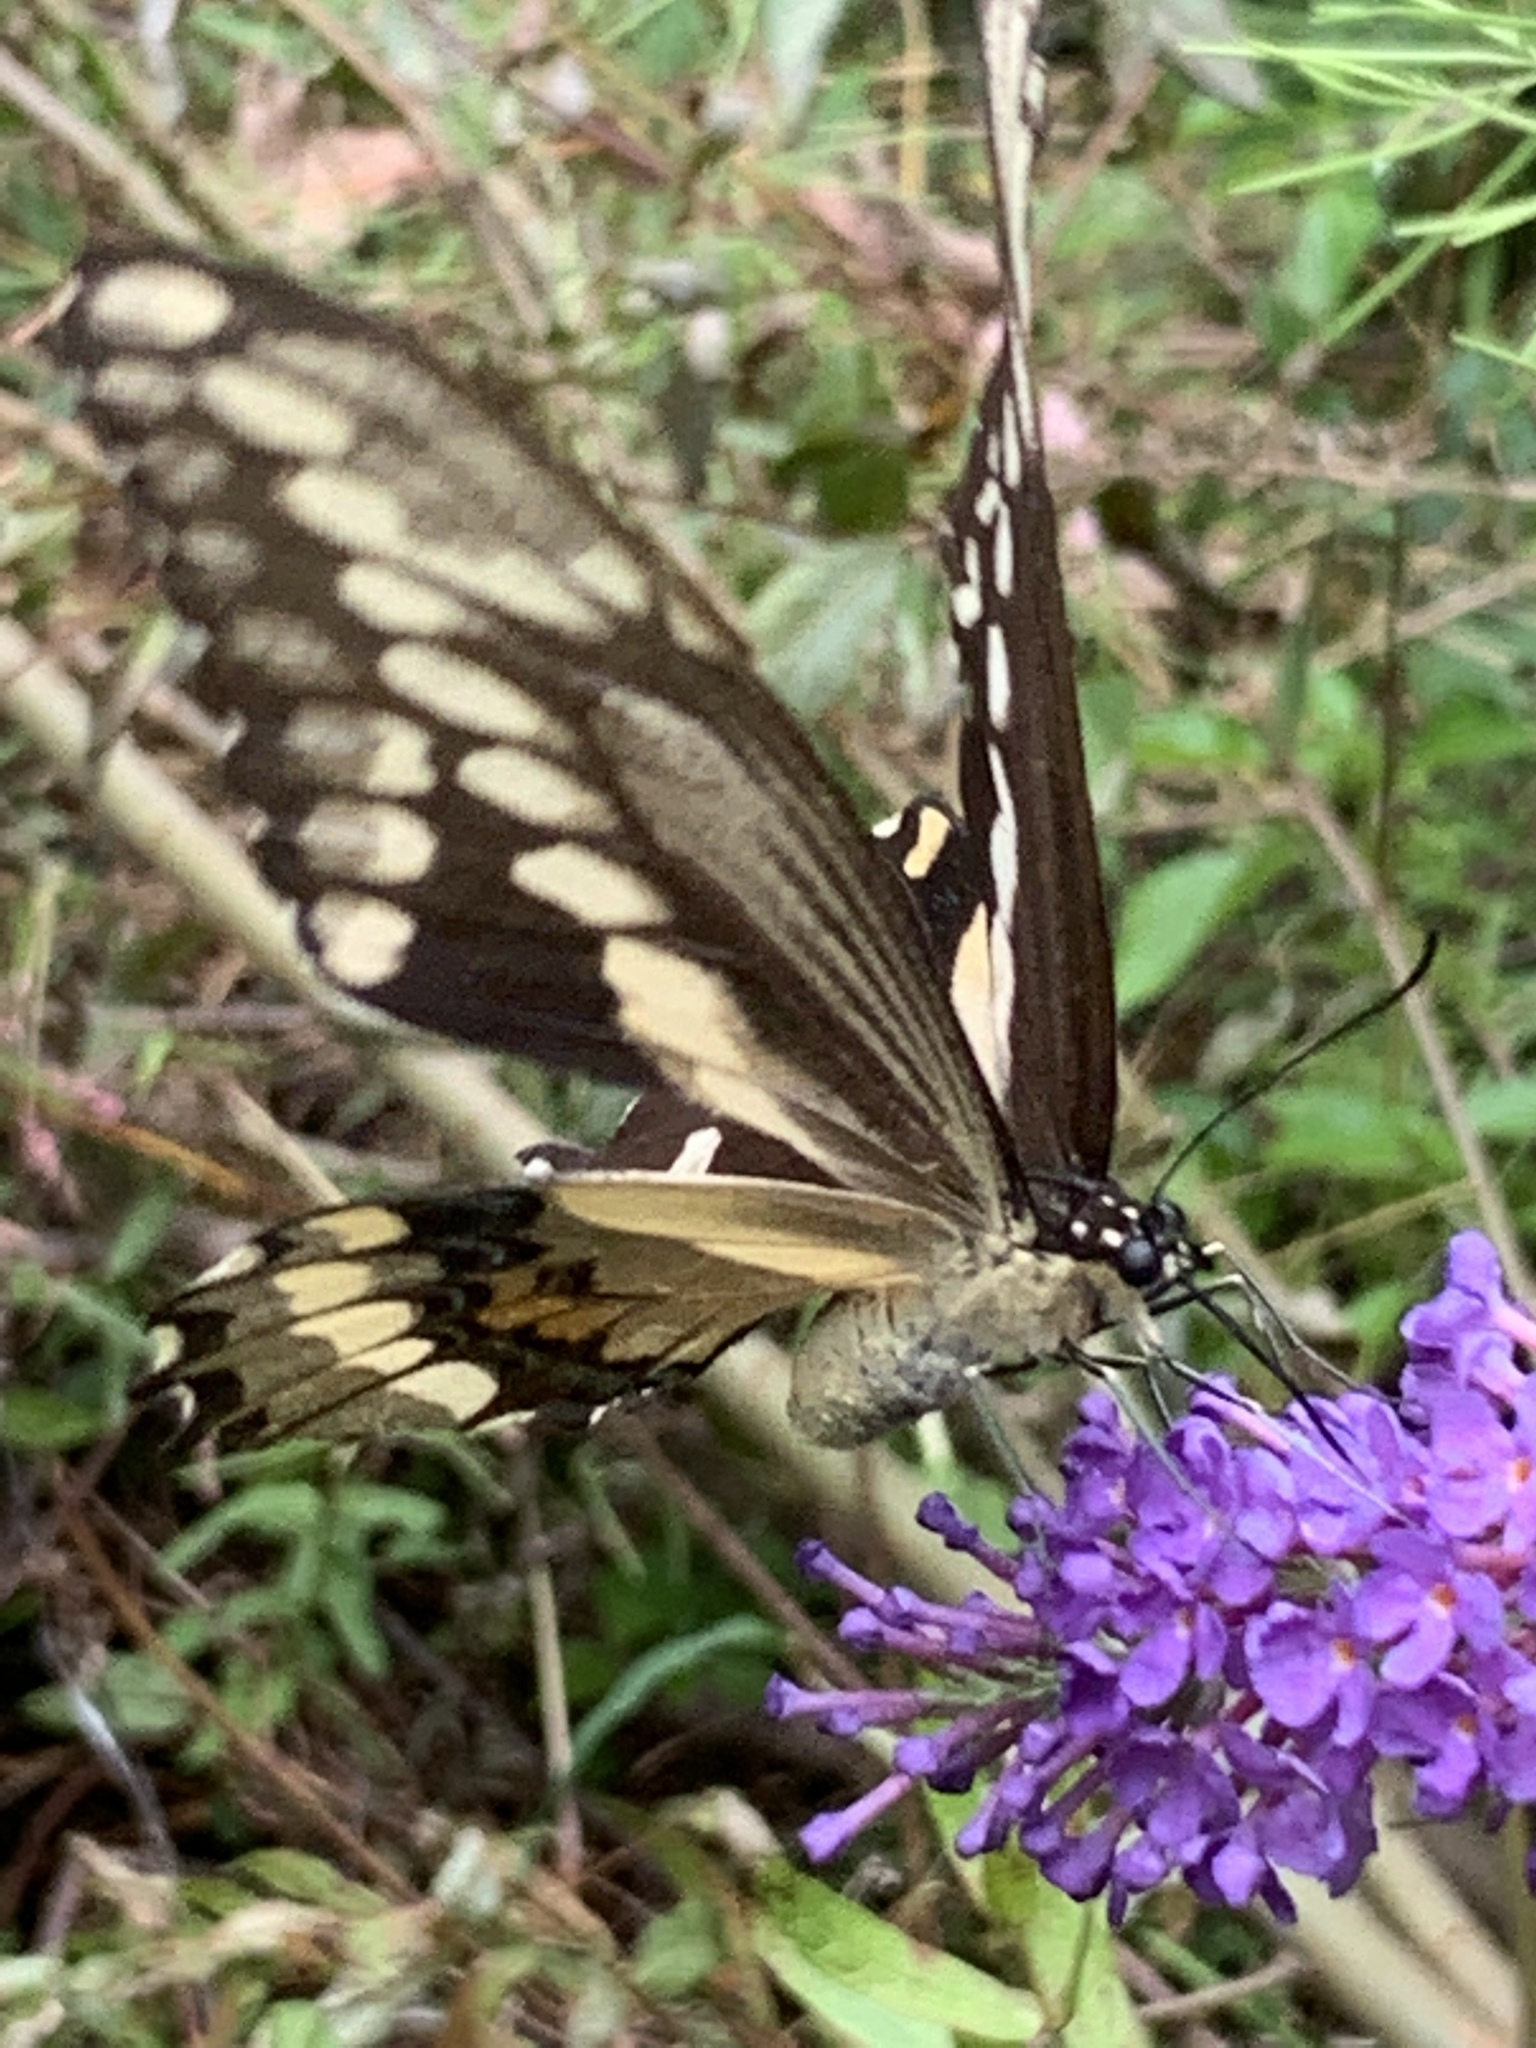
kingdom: Animalia
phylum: Arthropoda
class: Insecta
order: Lepidoptera
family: Papilionidae
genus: Papilio
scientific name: Papilio cresphontes
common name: Giant swallowtail
